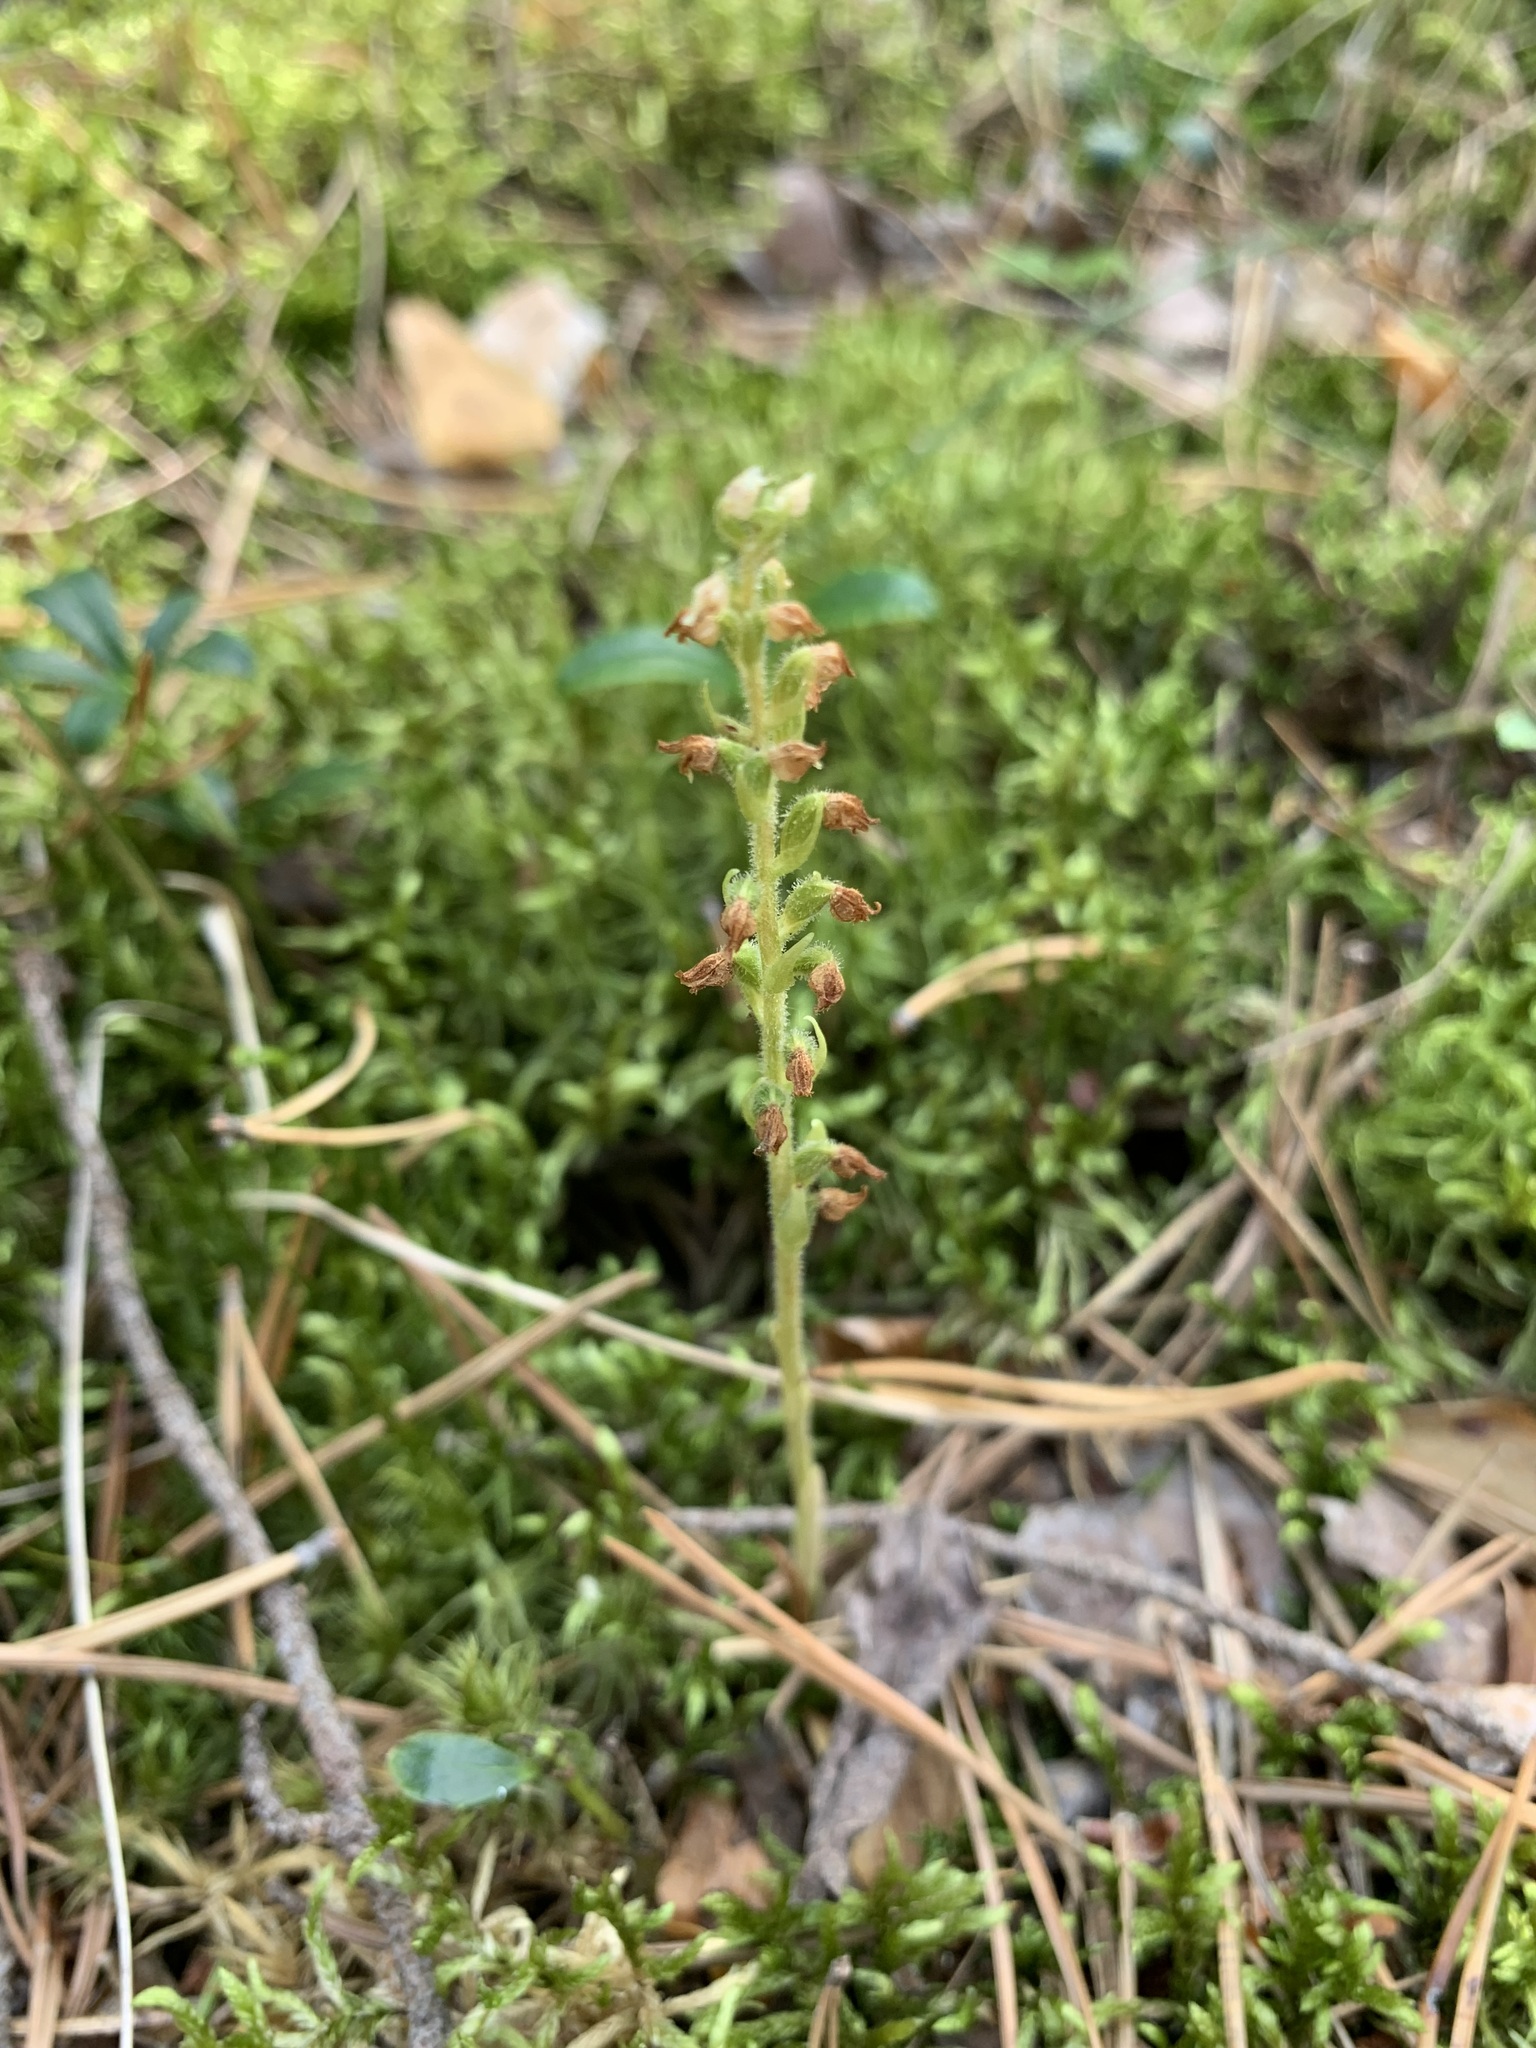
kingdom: Plantae
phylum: Tracheophyta
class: Liliopsida
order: Asparagales
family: Orchidaceae
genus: Goodyera
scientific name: Goodyera repens
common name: Creeping lady's-tresses
